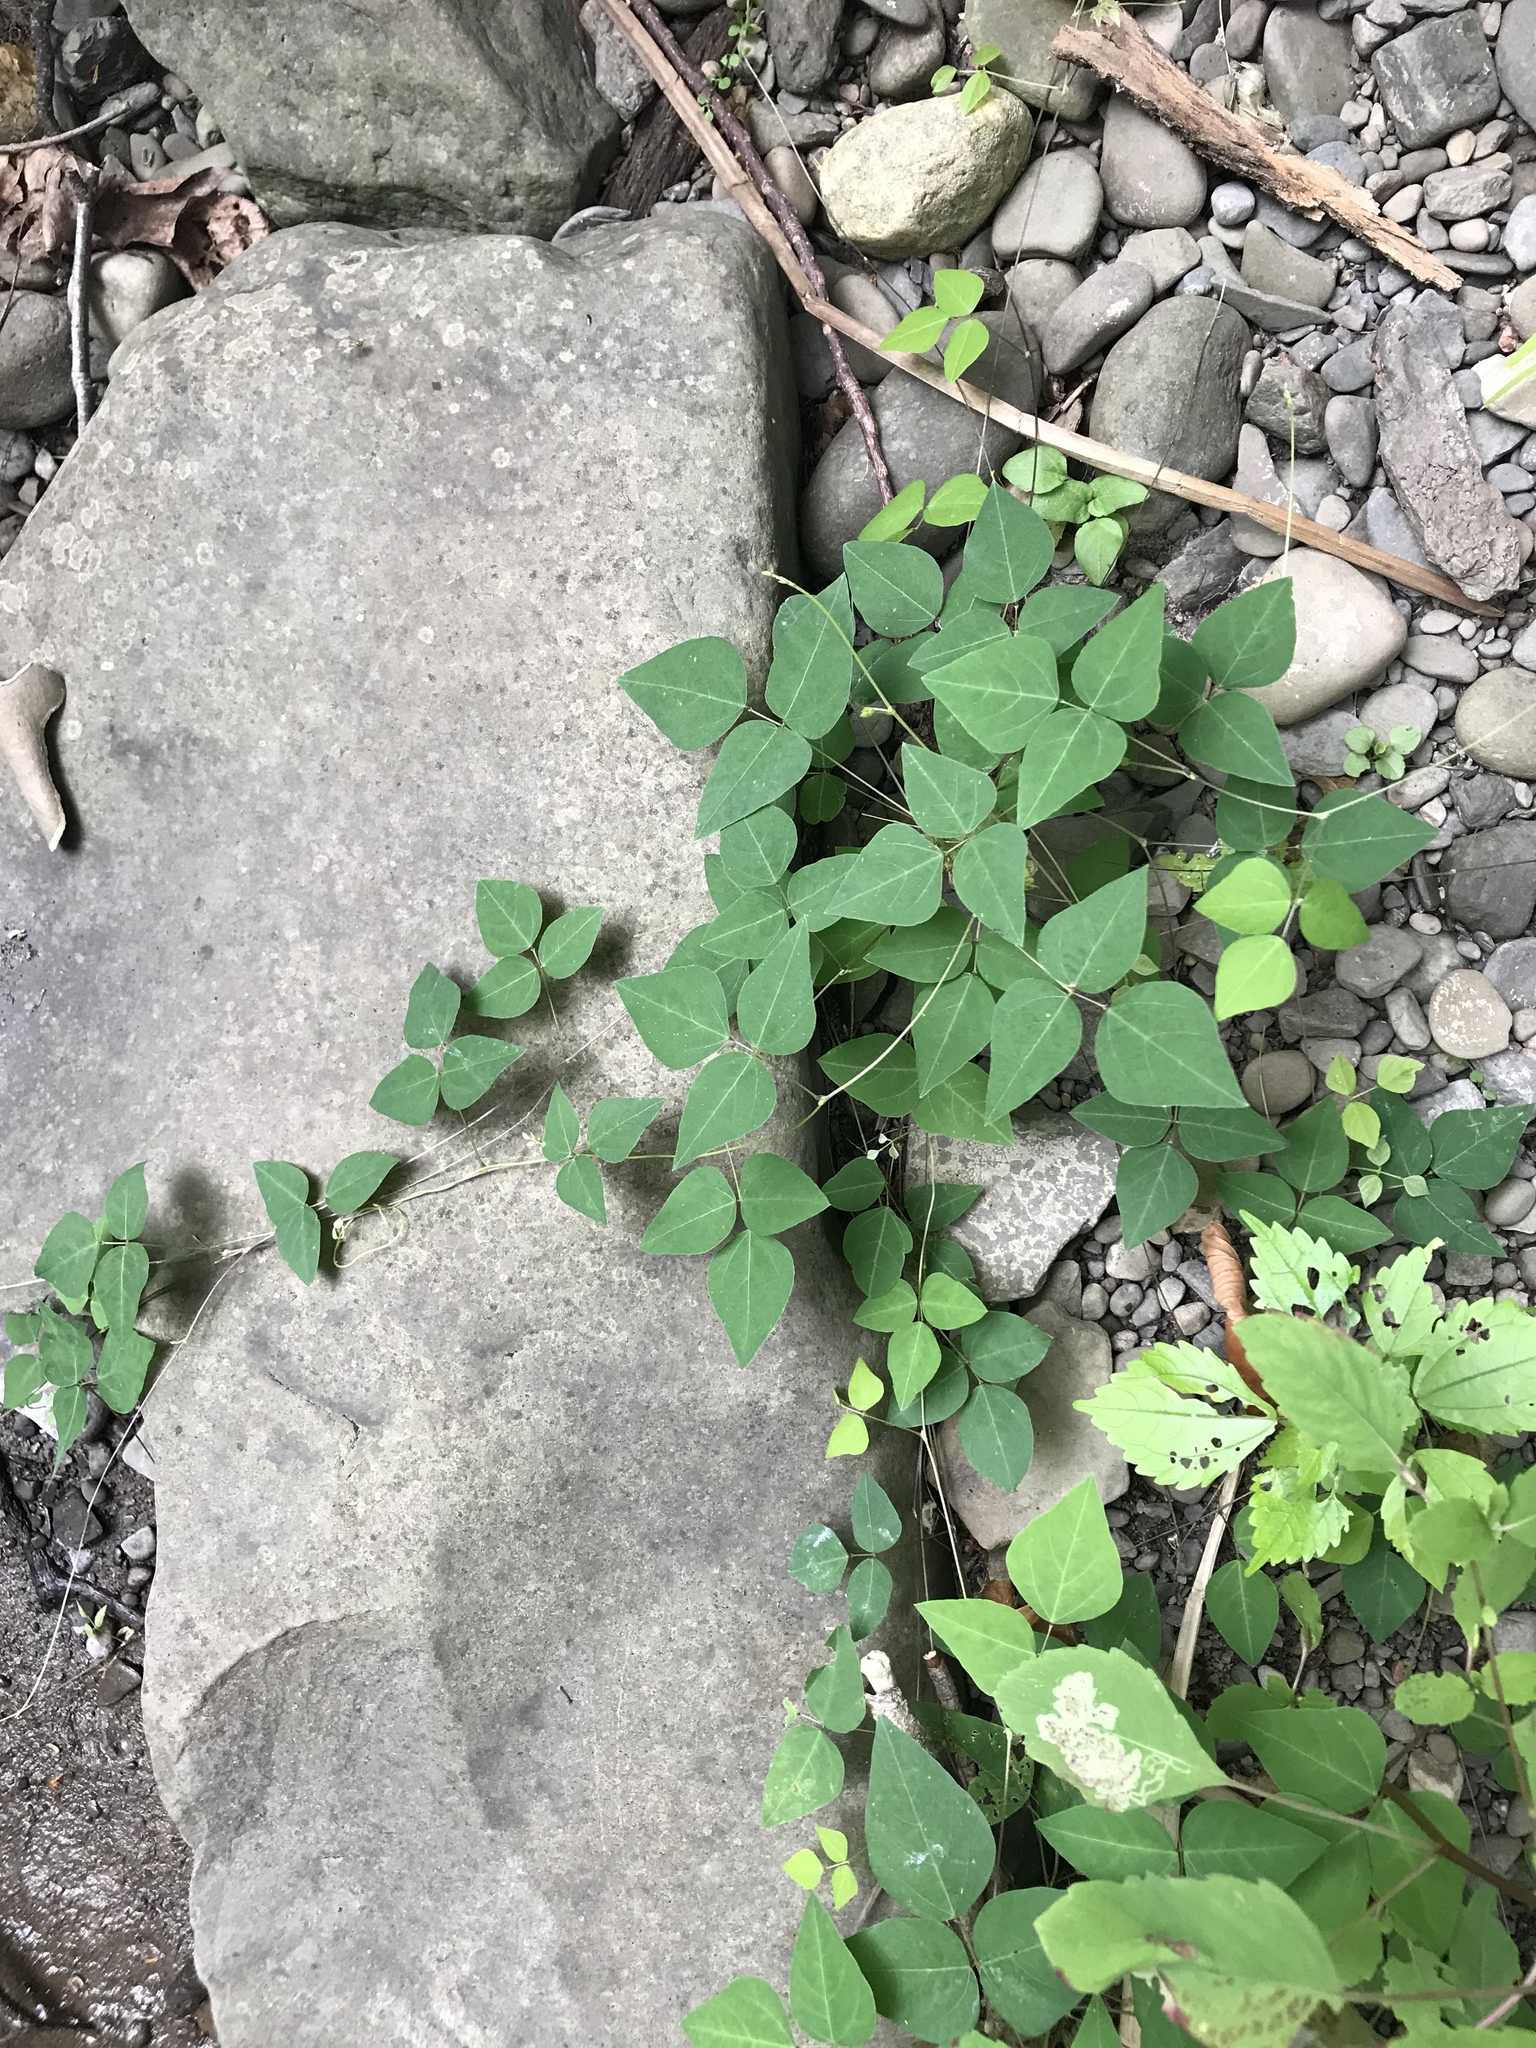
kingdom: Plantae
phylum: Tracheophyta
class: Magnoliopsida
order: Fabales
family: Fabaceae
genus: Amphicarpaea
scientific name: Amphicarpaea bracteata
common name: American hog peanut
